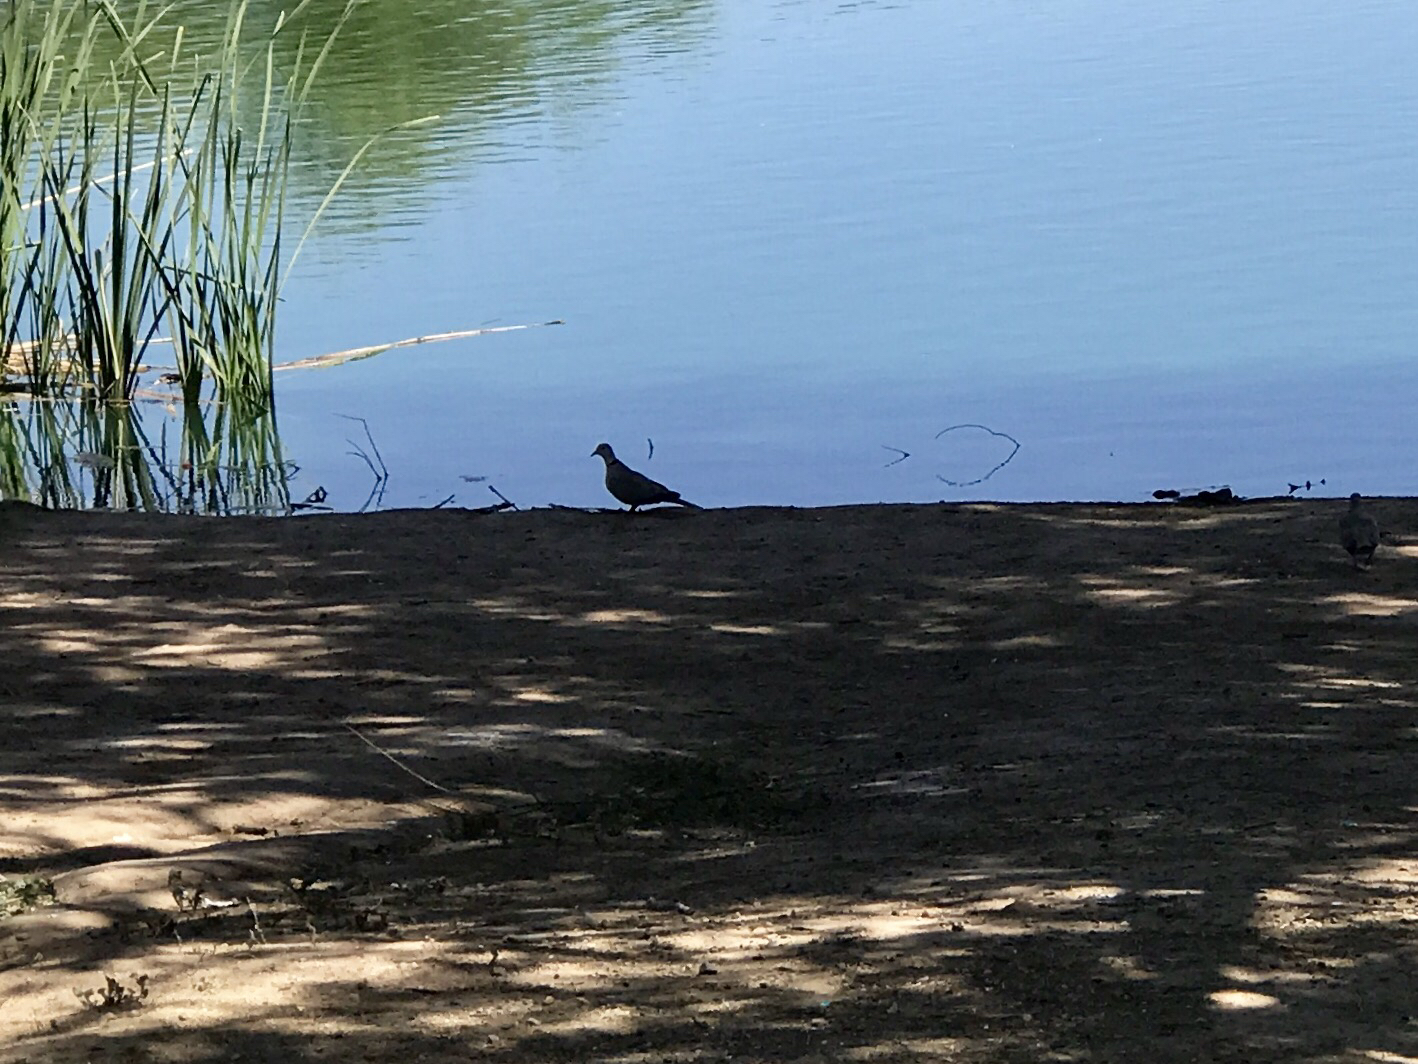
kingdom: Animalia
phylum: Chordata
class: Aves
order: Columbiformes
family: Columbidae
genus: Streptopelia
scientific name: Streptopelia decaocto
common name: Eurasian collared dove
